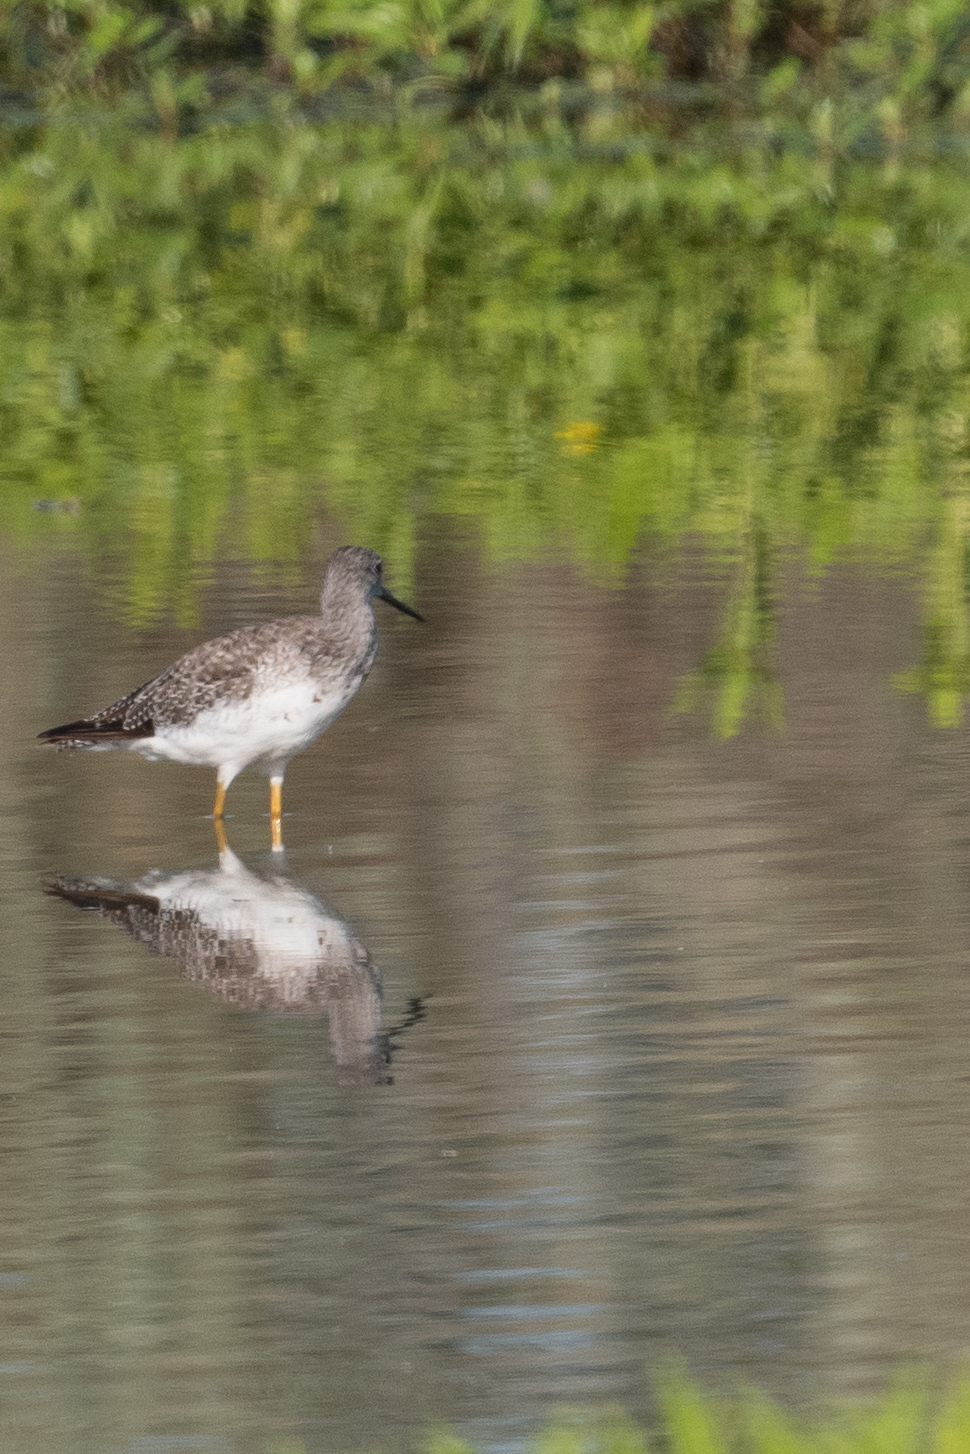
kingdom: Animalia
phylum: Chordata
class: Aves
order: Charadriiformes
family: Scolopacidae
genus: Tringa
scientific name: Tringa melanoleuca
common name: Greater yellowlegs
